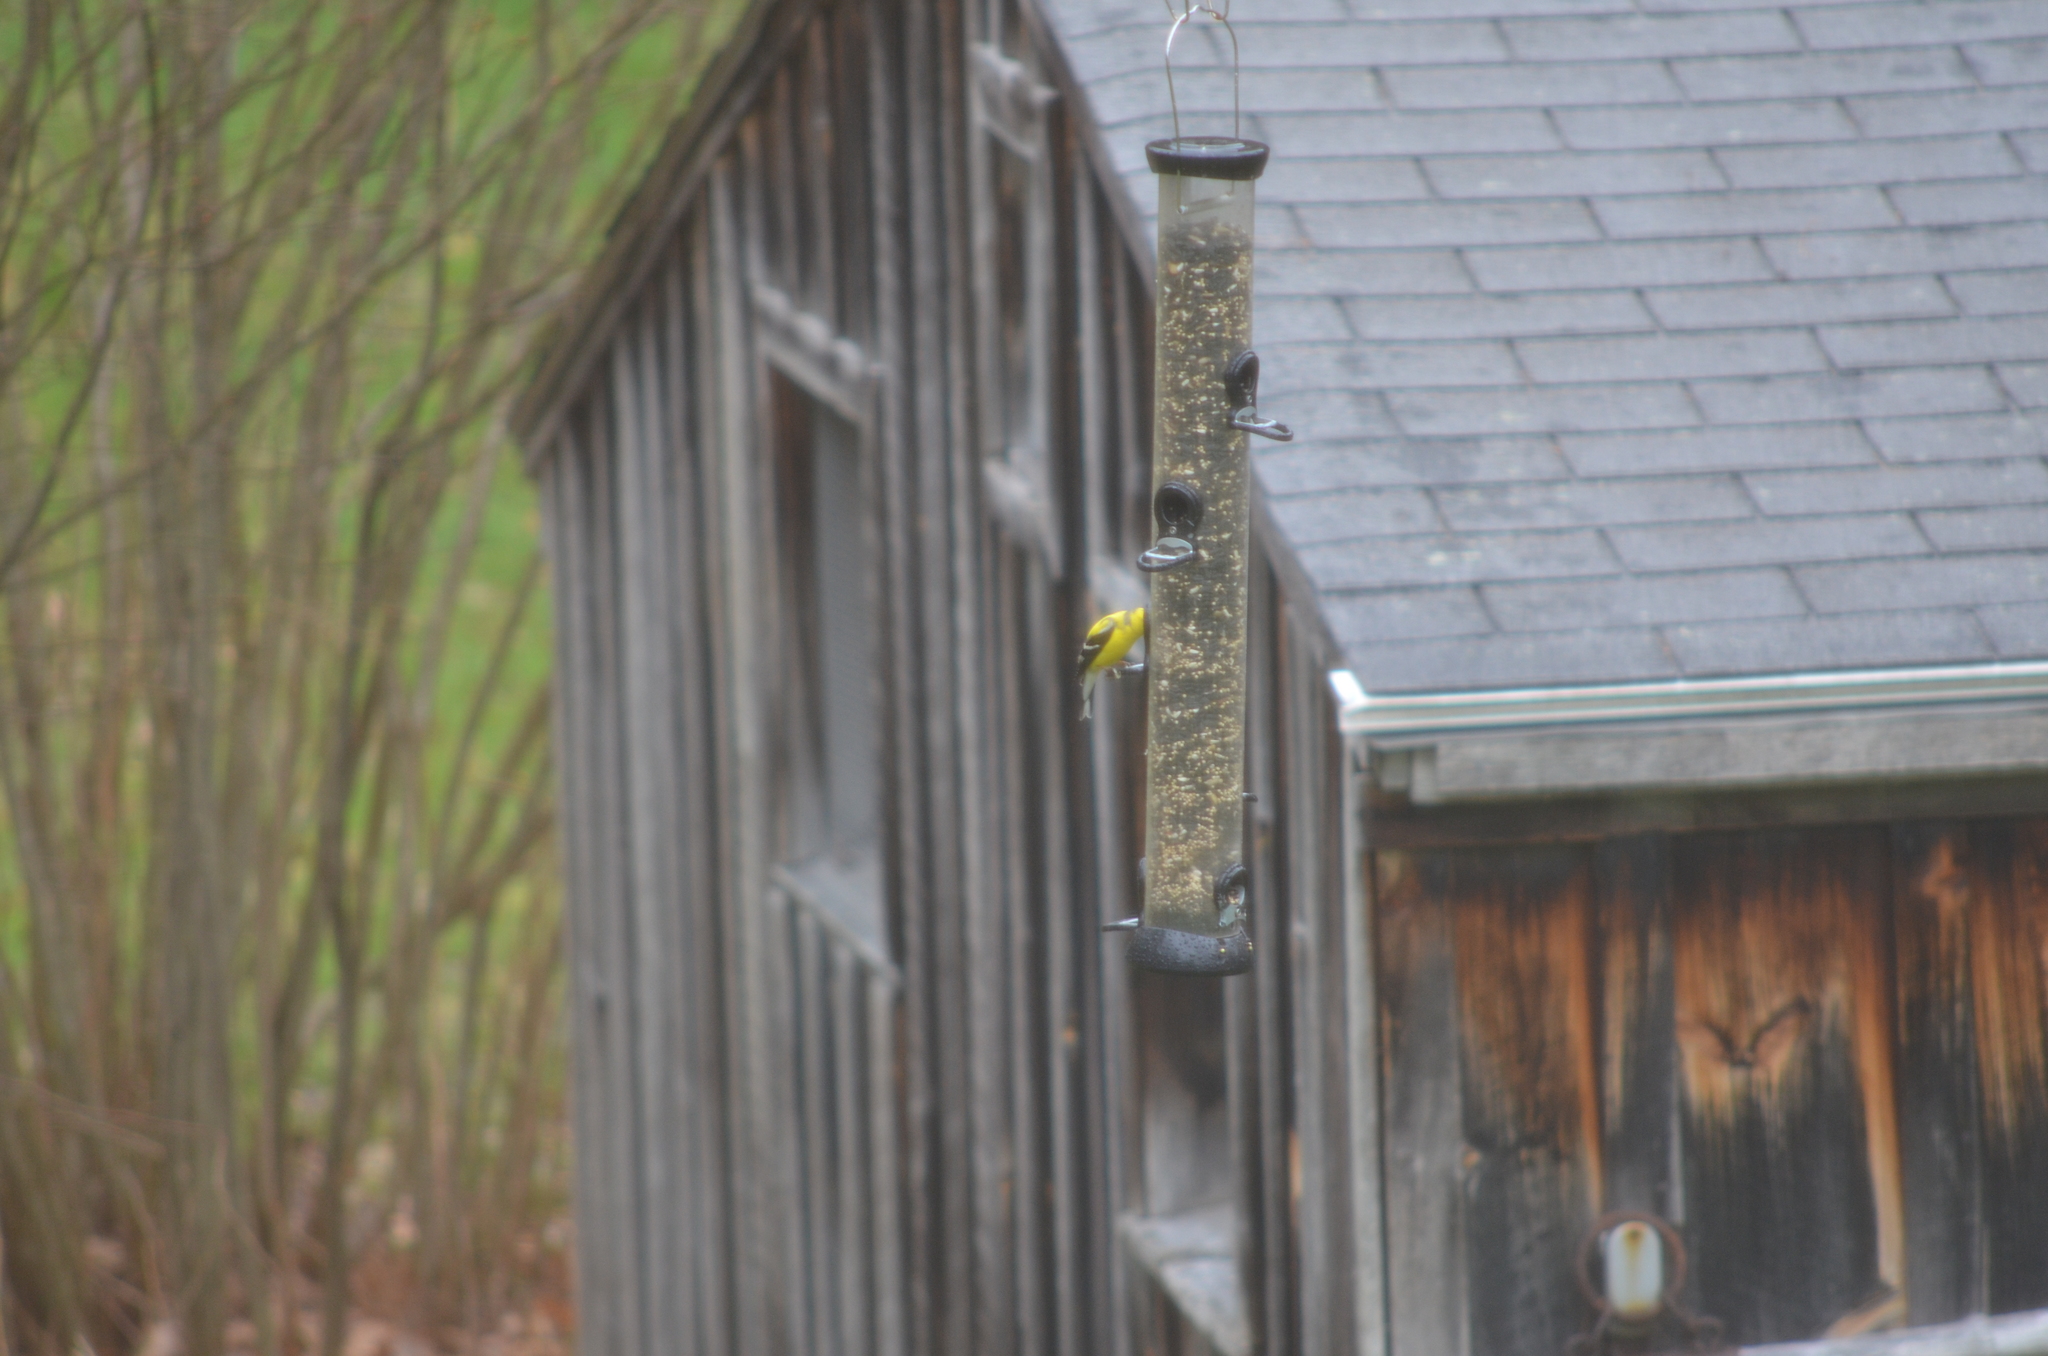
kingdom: Animalia
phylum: Chordata
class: Aves
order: Passeriformes
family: Fringillidae
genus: Spinus
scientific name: Spinus tristis
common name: American goldfinch
